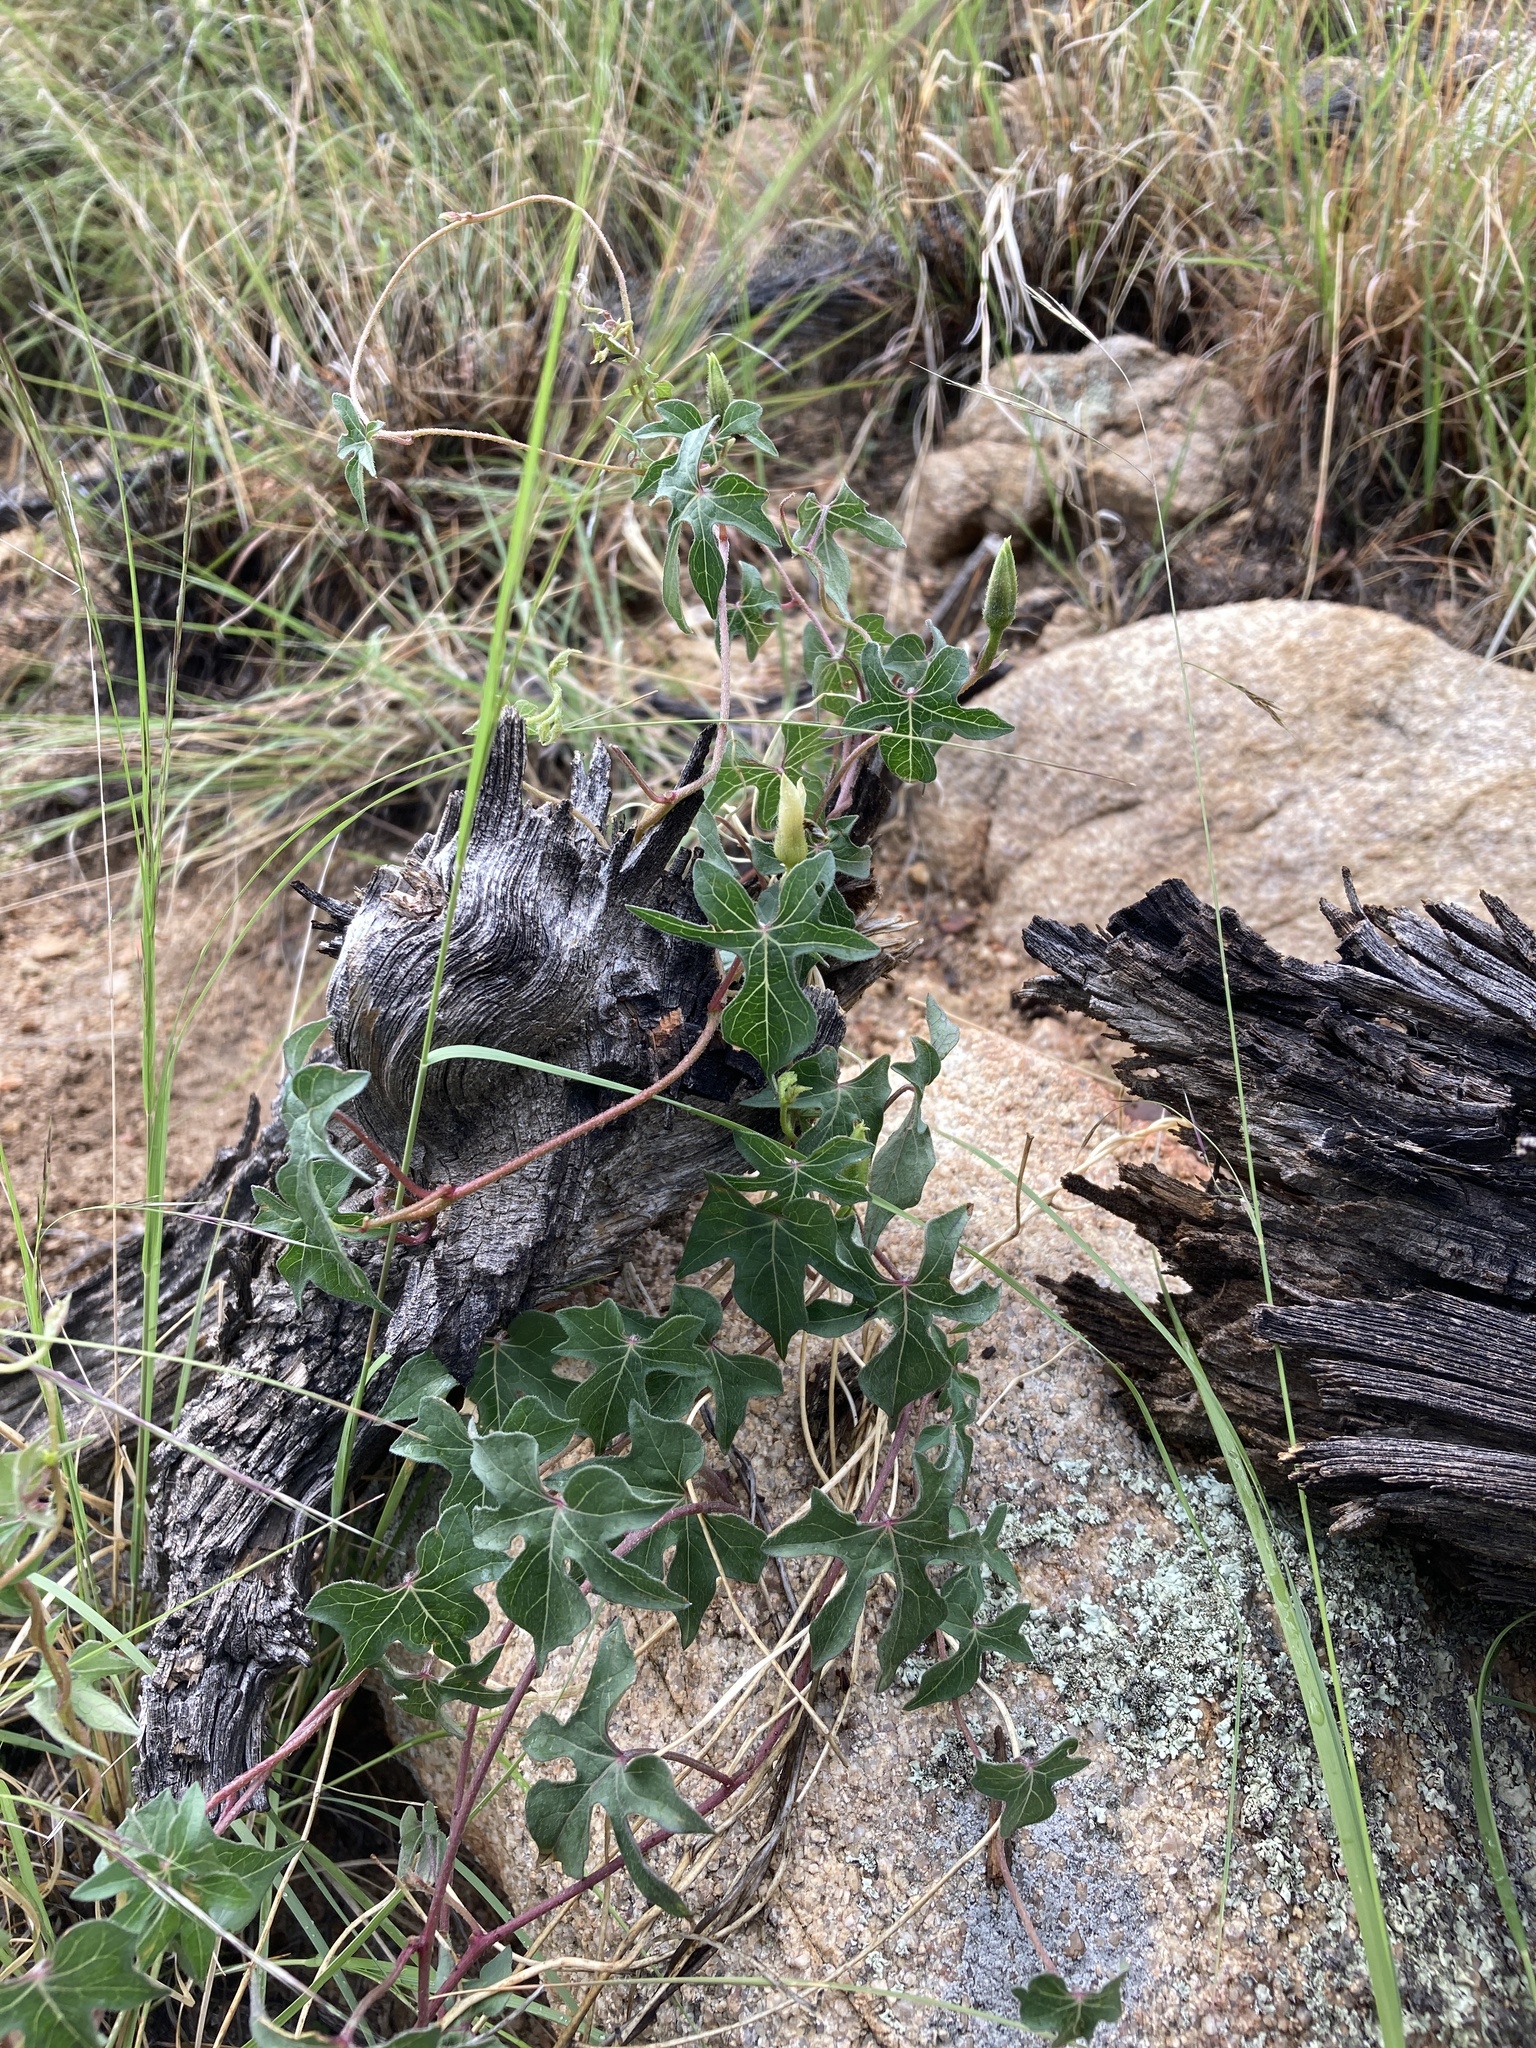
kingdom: Plantae
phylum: Tracheophyta
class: Magnoliopsida
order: Solanales
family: Convolvulaceae
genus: Ipomoea
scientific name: Ipomoea gilana
